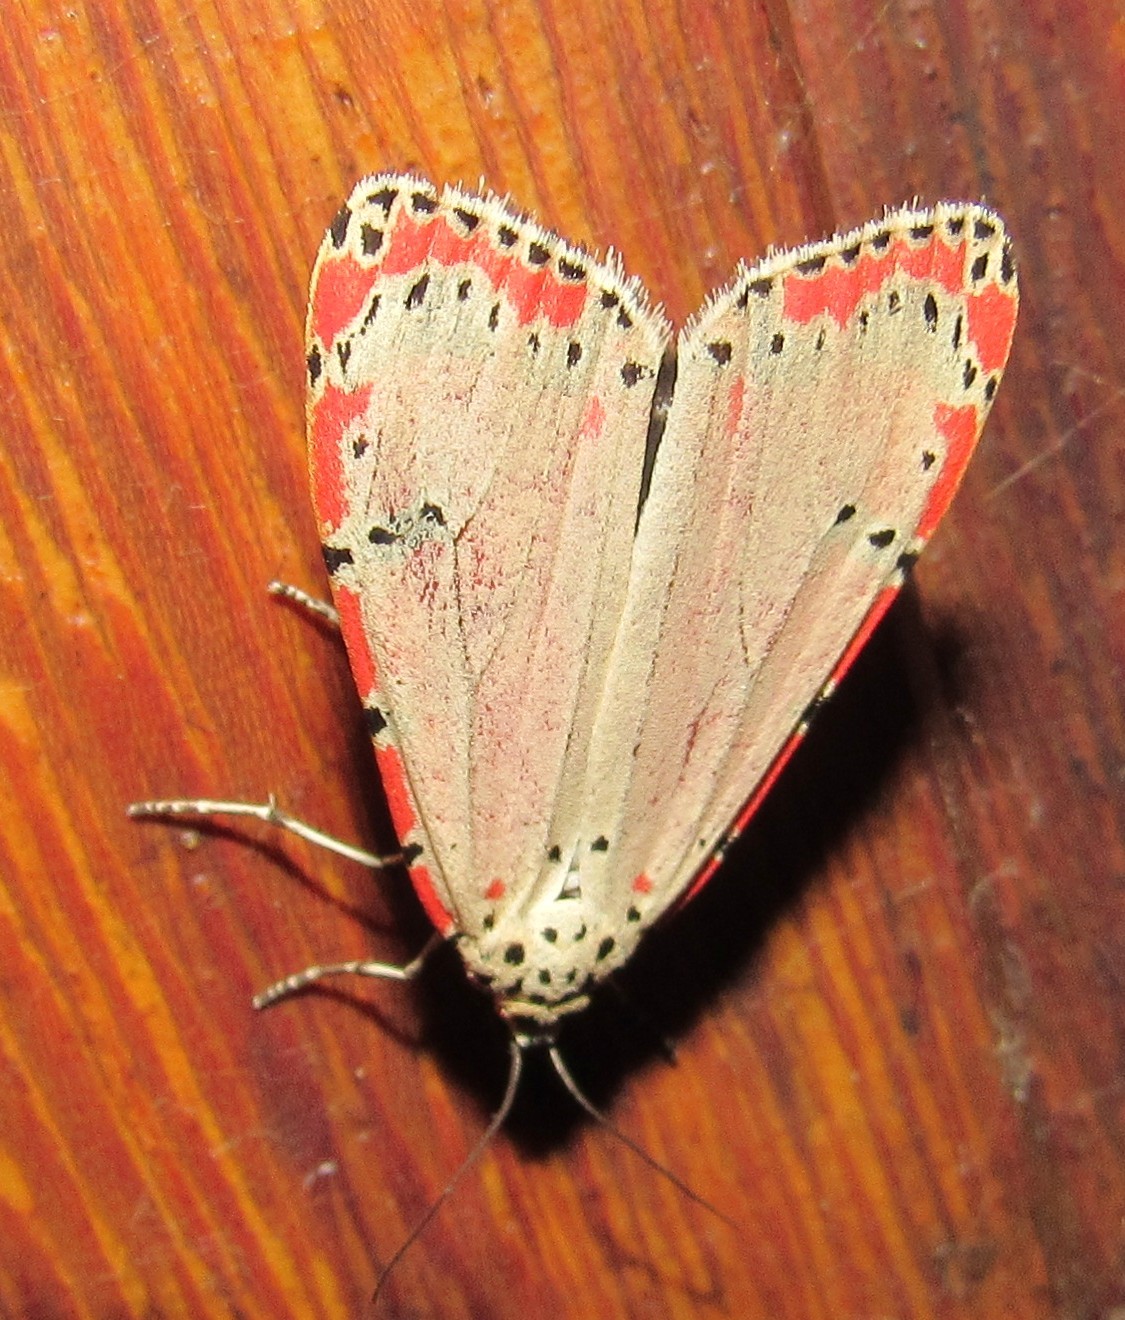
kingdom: Animalia
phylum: Arthropoda
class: Insecta
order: Lepidoptera
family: Erebidae
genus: Utetheisa
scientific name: Utetheisa ornatrix
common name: Beautiful utetheisa
